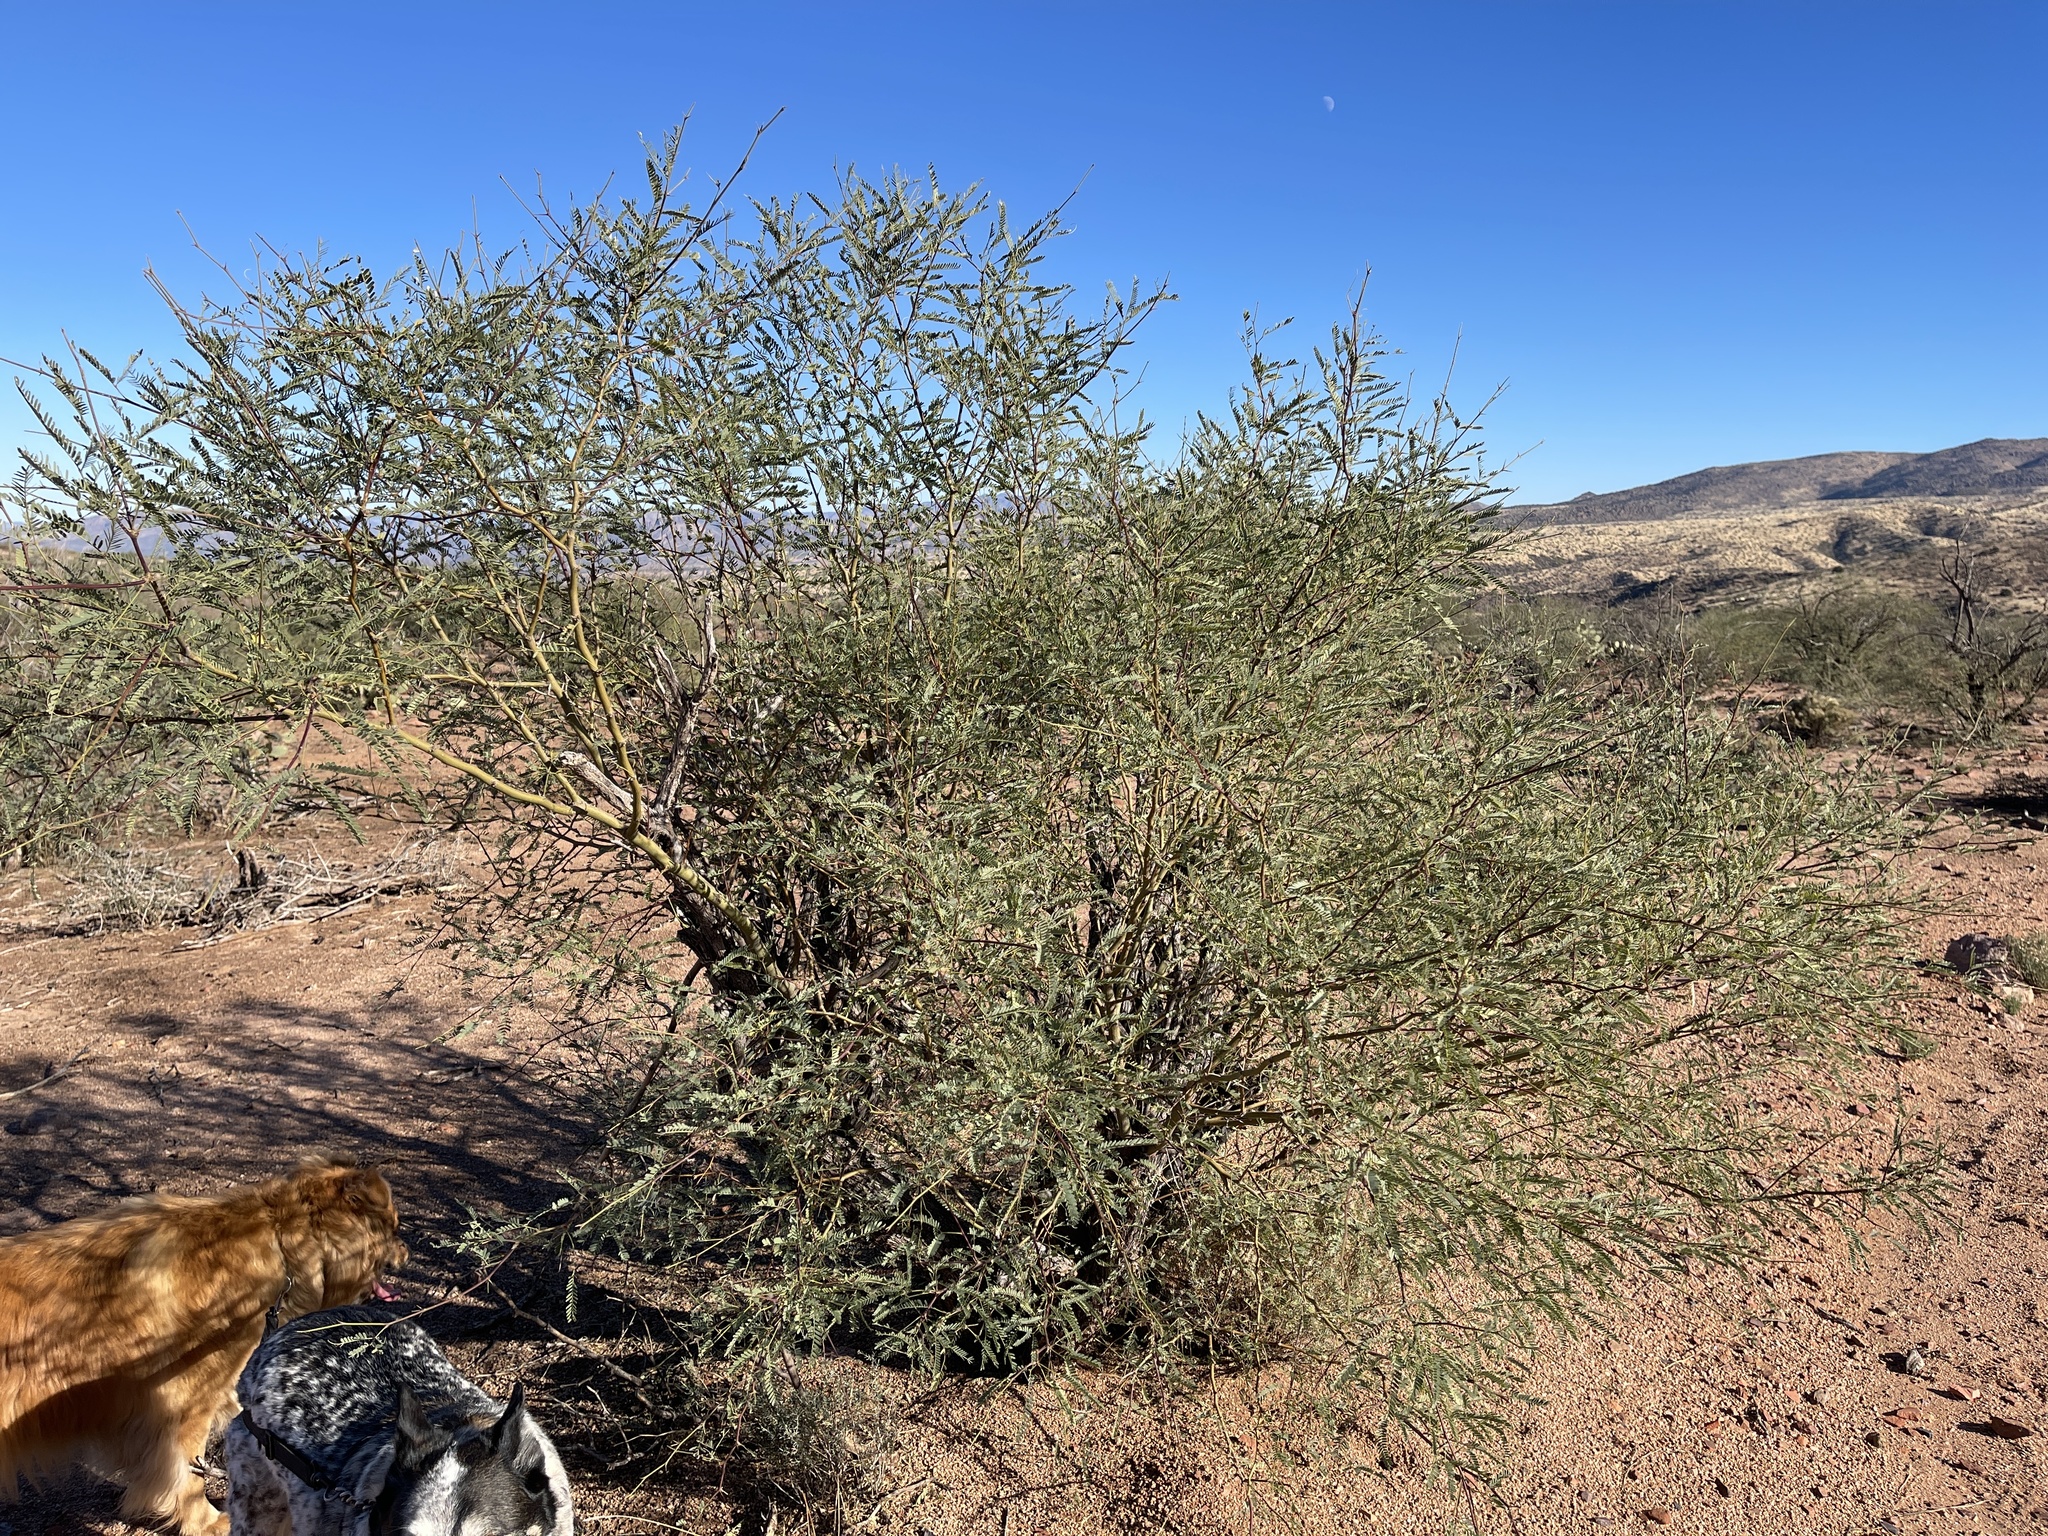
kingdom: Plantae
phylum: Tracheophyta
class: Magnoliopsida
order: Fabales
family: Fabaceae
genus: Prosopis
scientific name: Prosopis velutina
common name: Velvet mesquite
